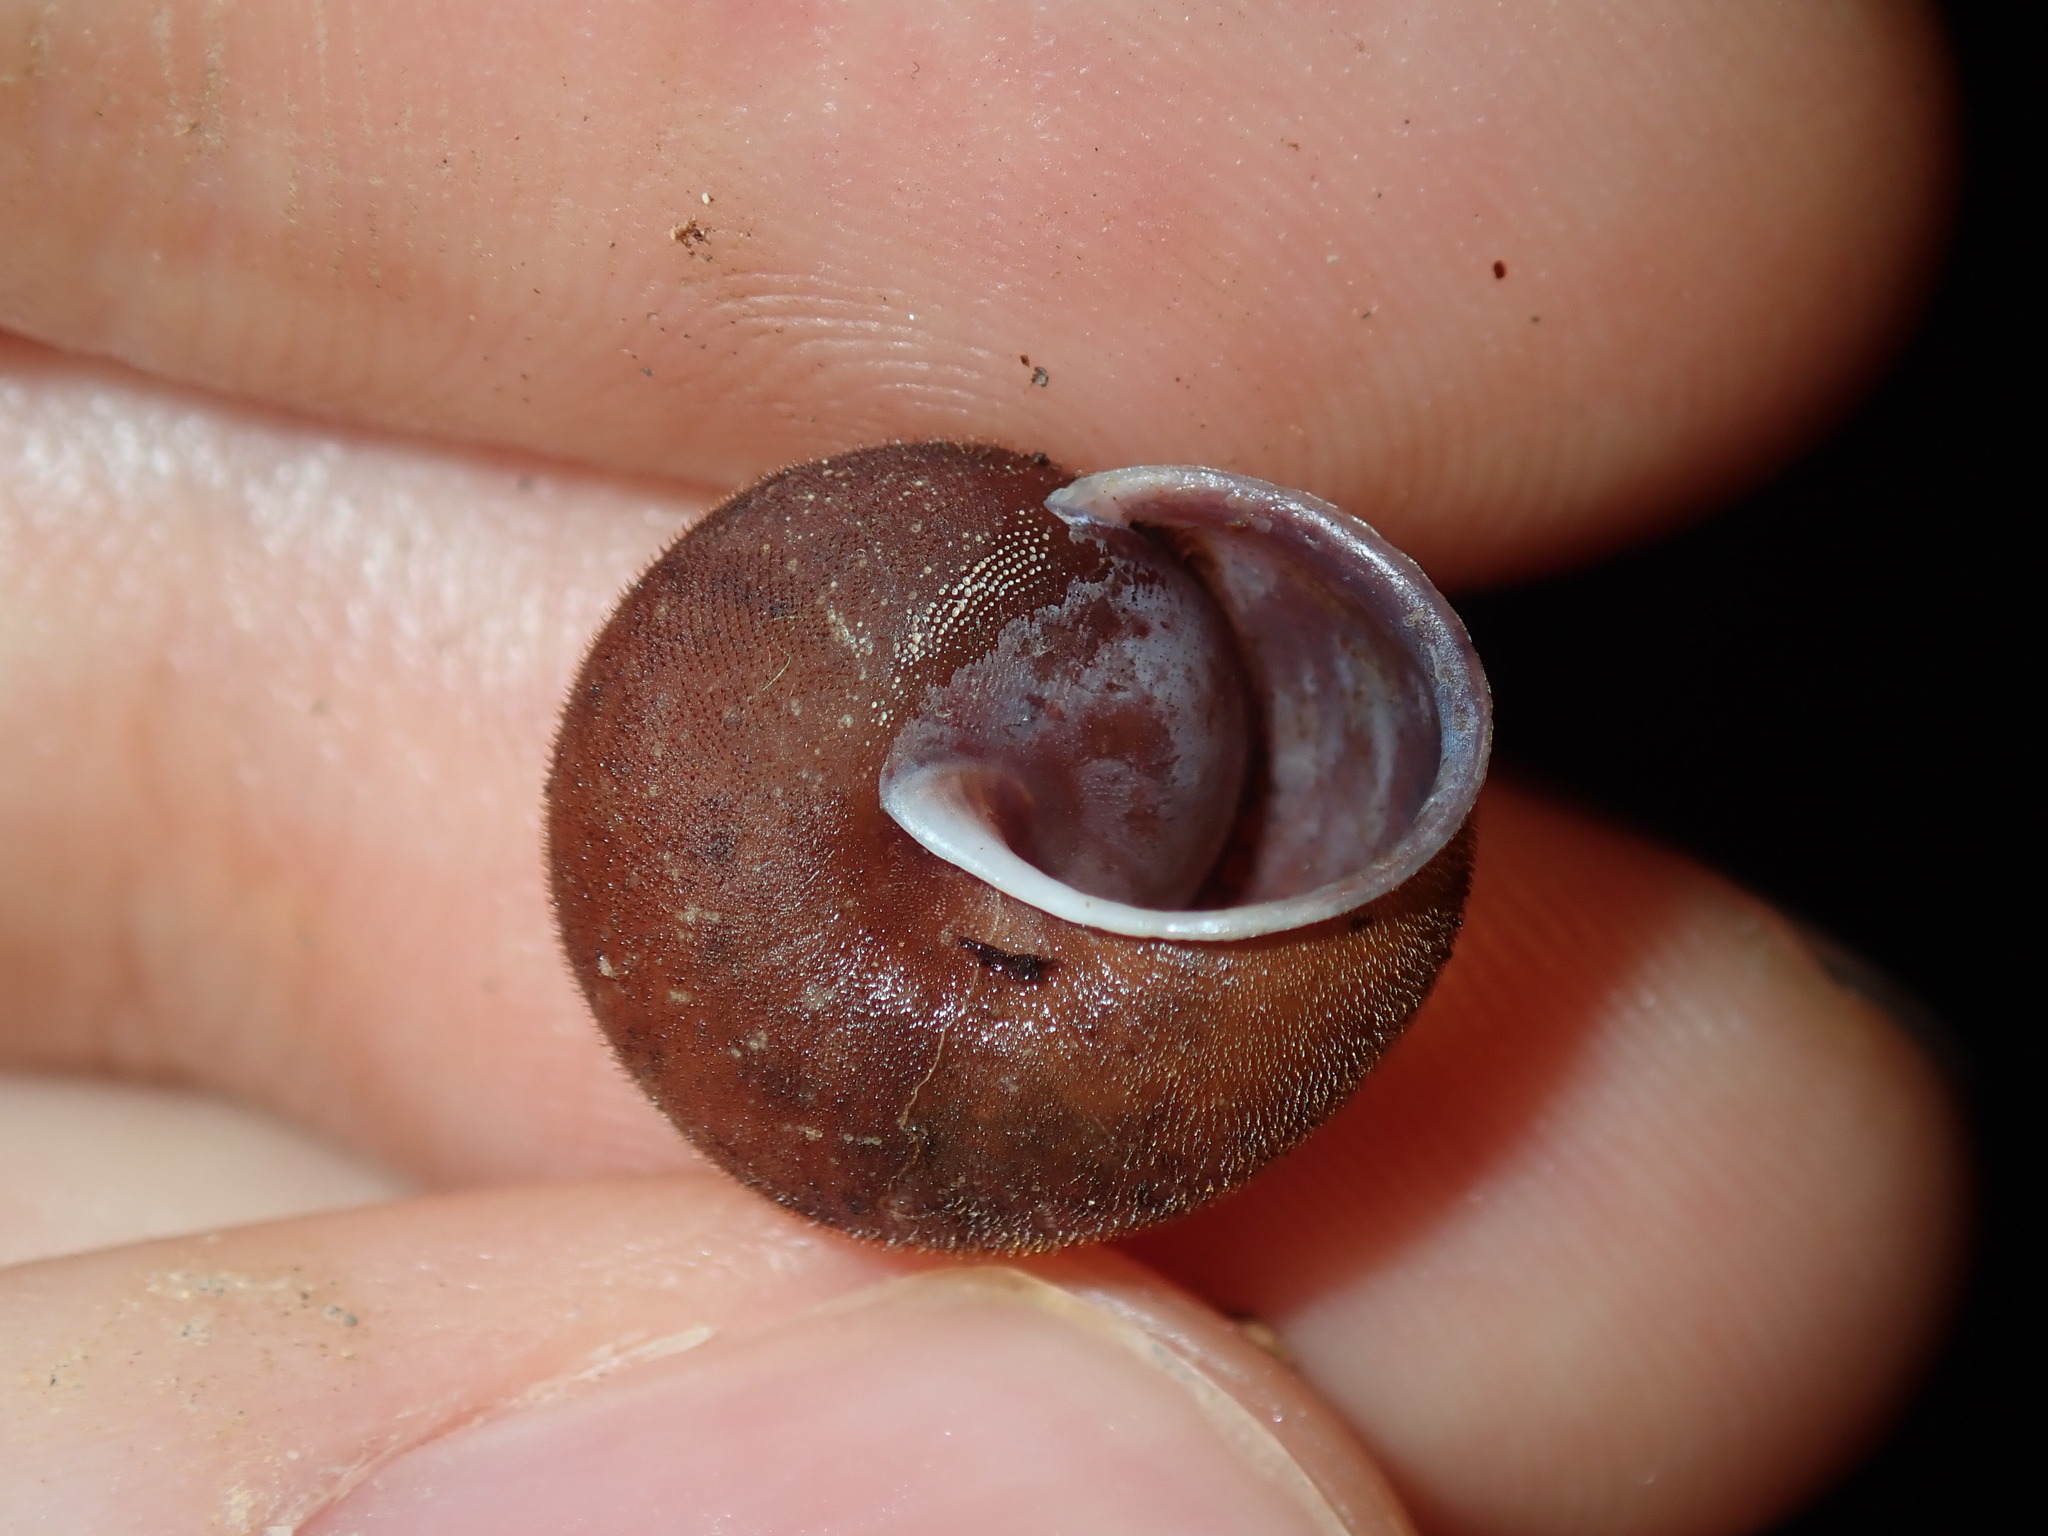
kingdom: Animalia
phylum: Mollusca
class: Gastropoda
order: Stylommatophora
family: Camaenidae
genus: Austrochloritis
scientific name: Austrochloritis
